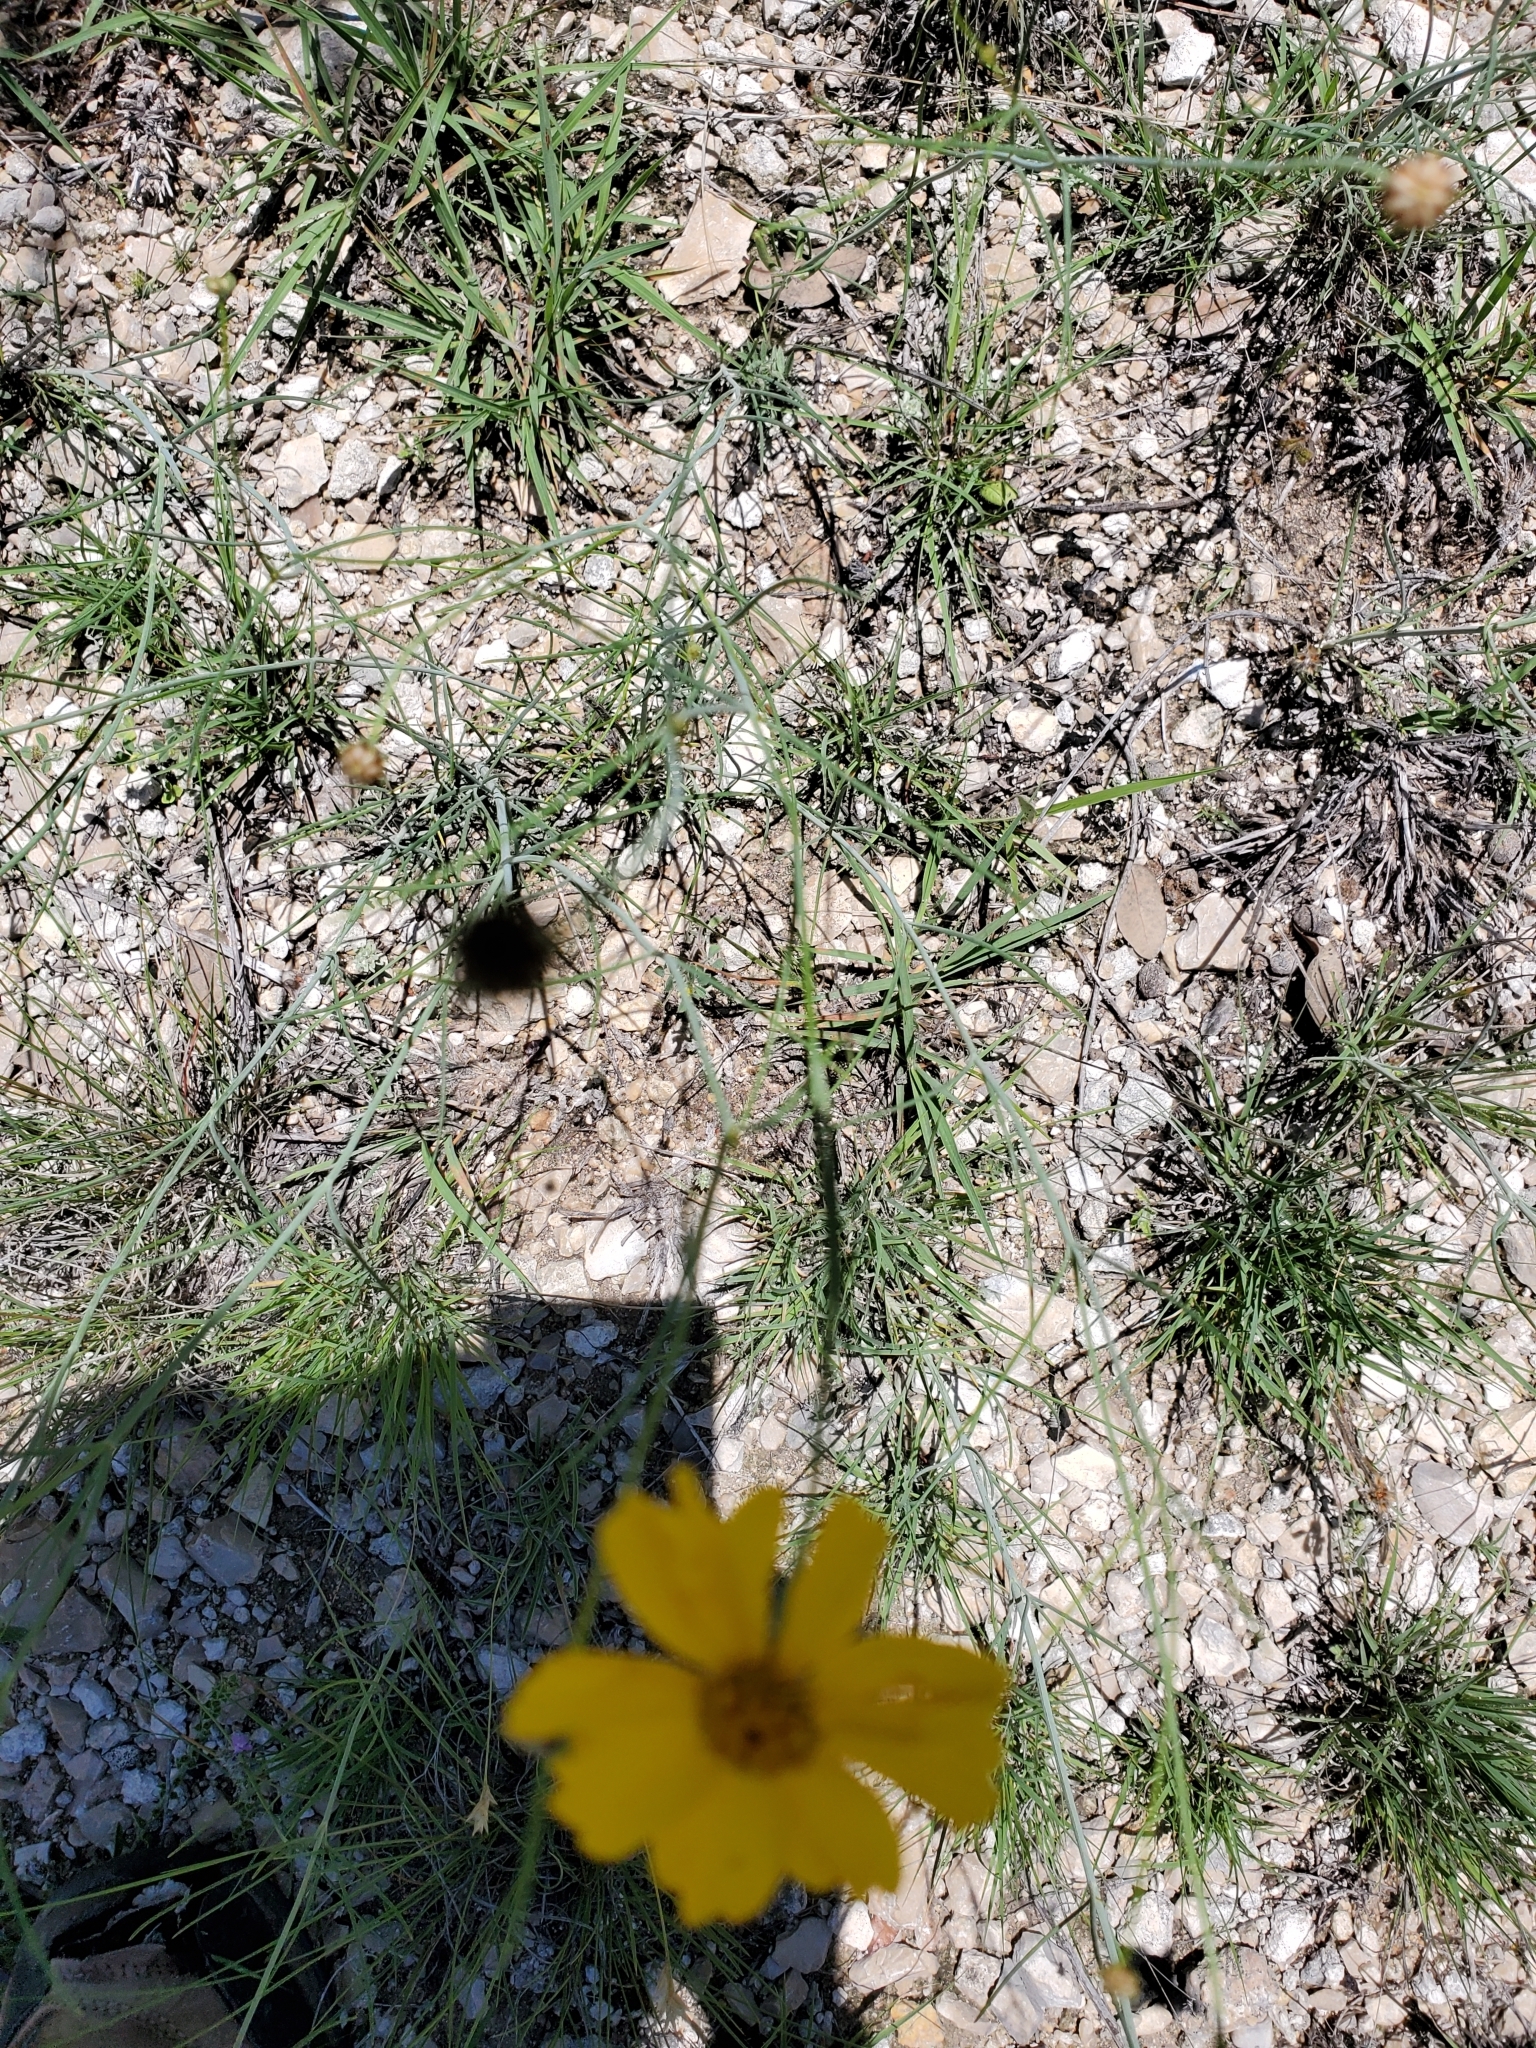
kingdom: Plantae
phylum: Tracheophyta
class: Magnoliopsida
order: Asterales
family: Asteraceae
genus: Thelesperma
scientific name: Thelesperma simplicifolium
